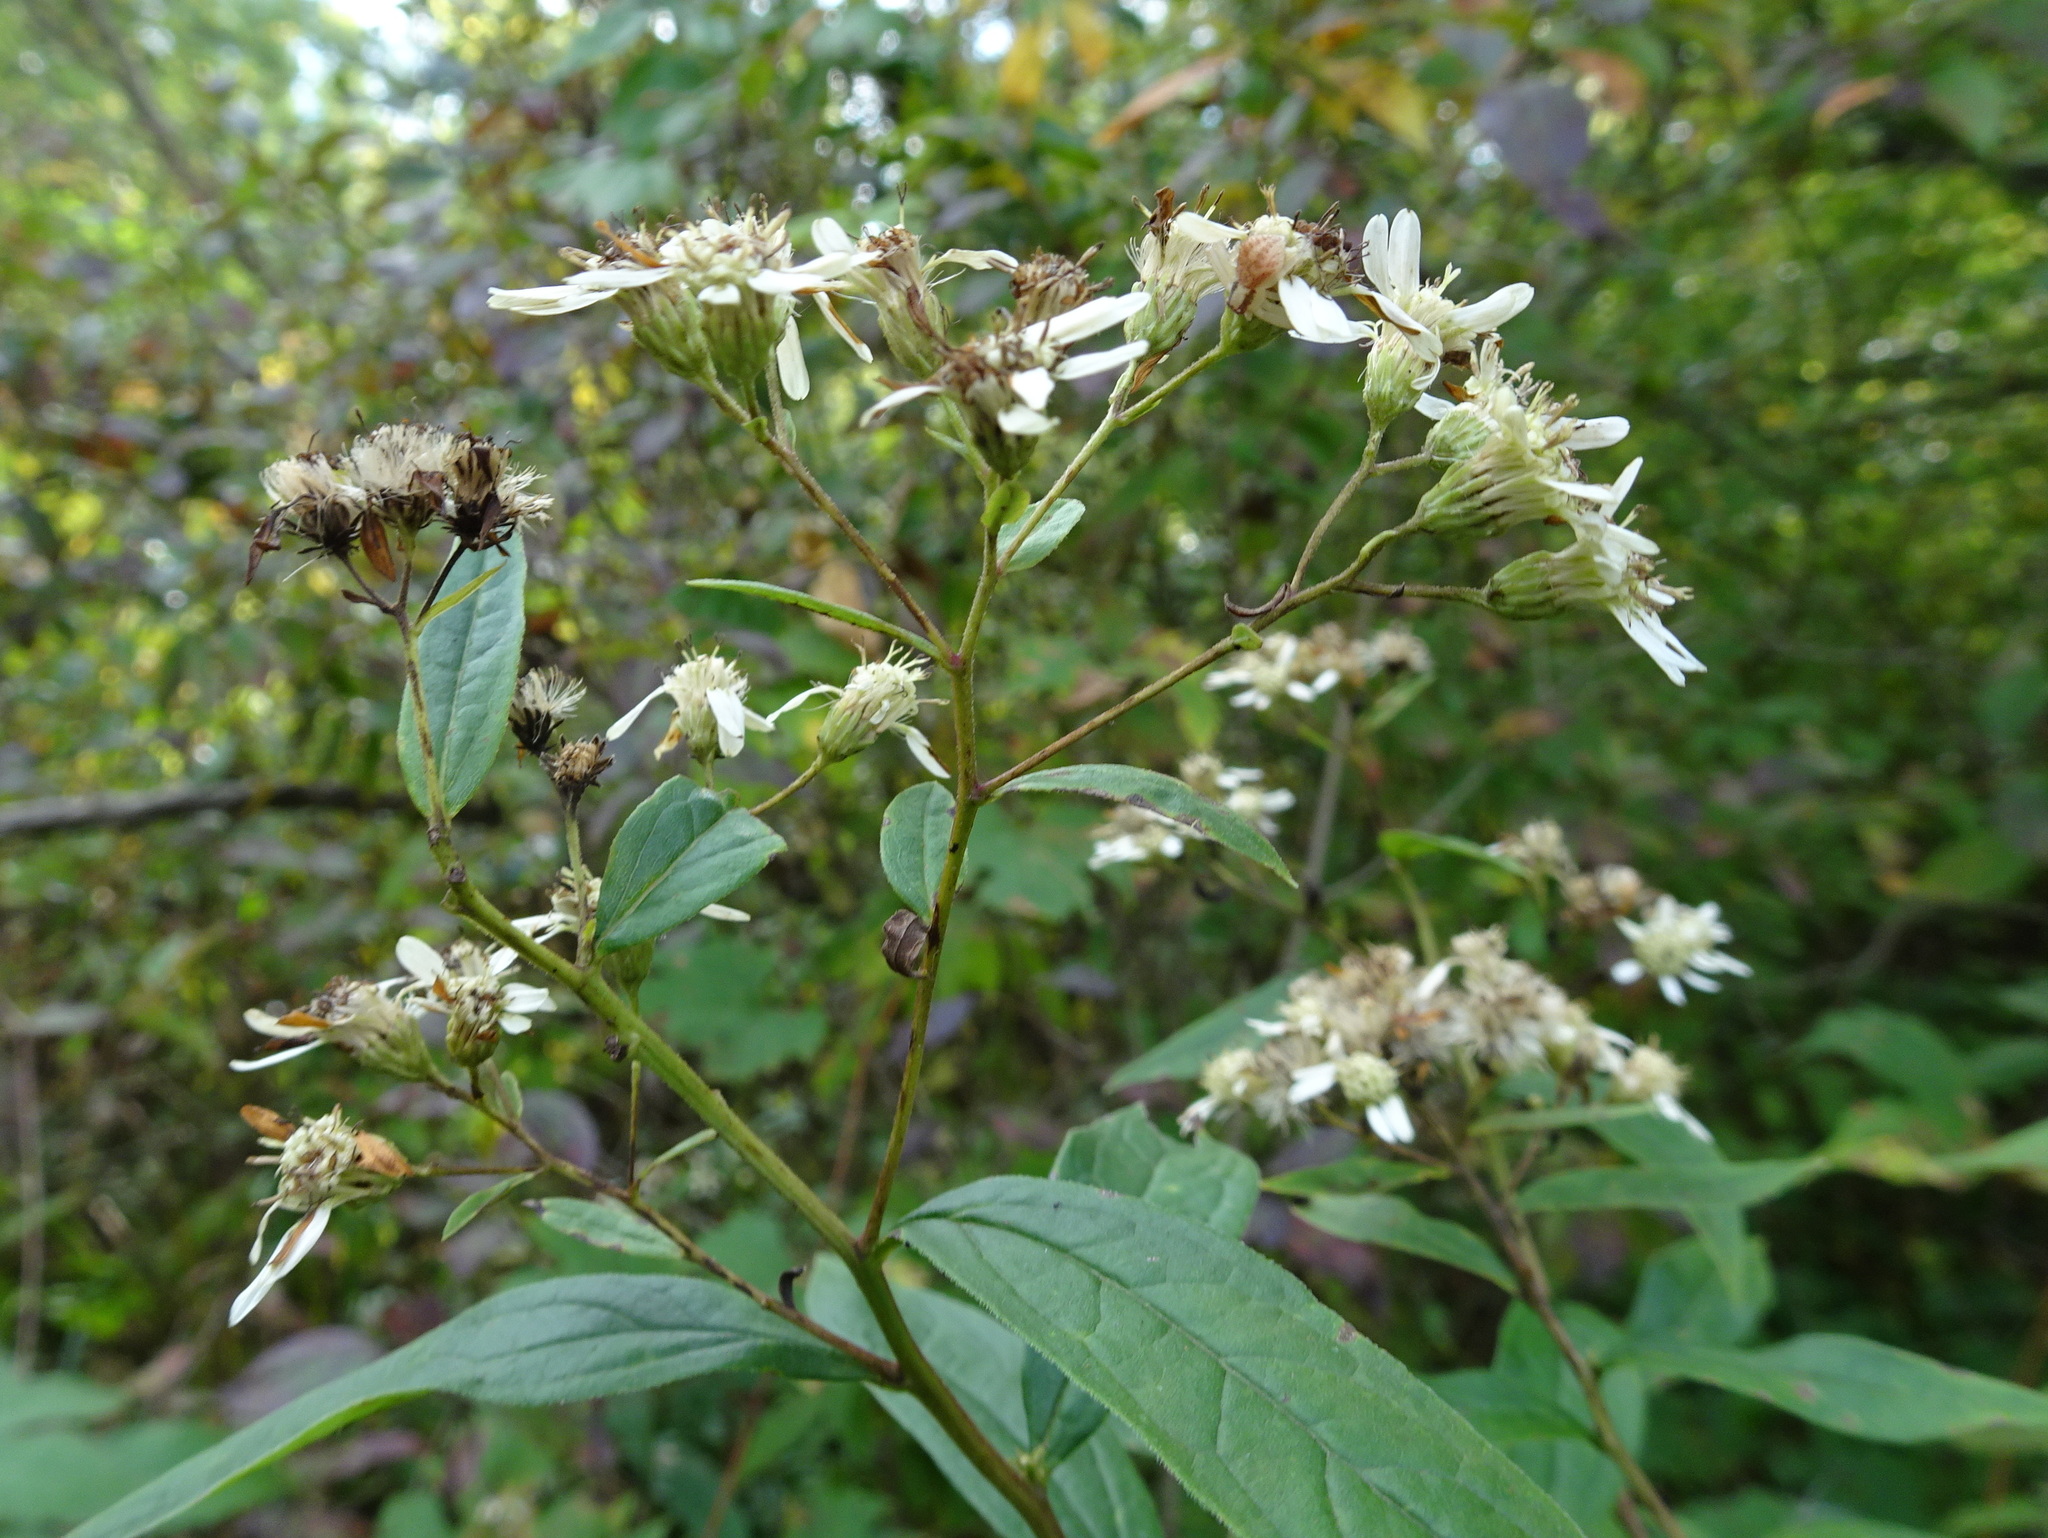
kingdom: Plantae
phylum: Tracheophyta
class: Magnoliopsida
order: Asterales
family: Asteraceae
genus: Doellingeria
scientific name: Doellingeria umbellata
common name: Flat-top white aster
